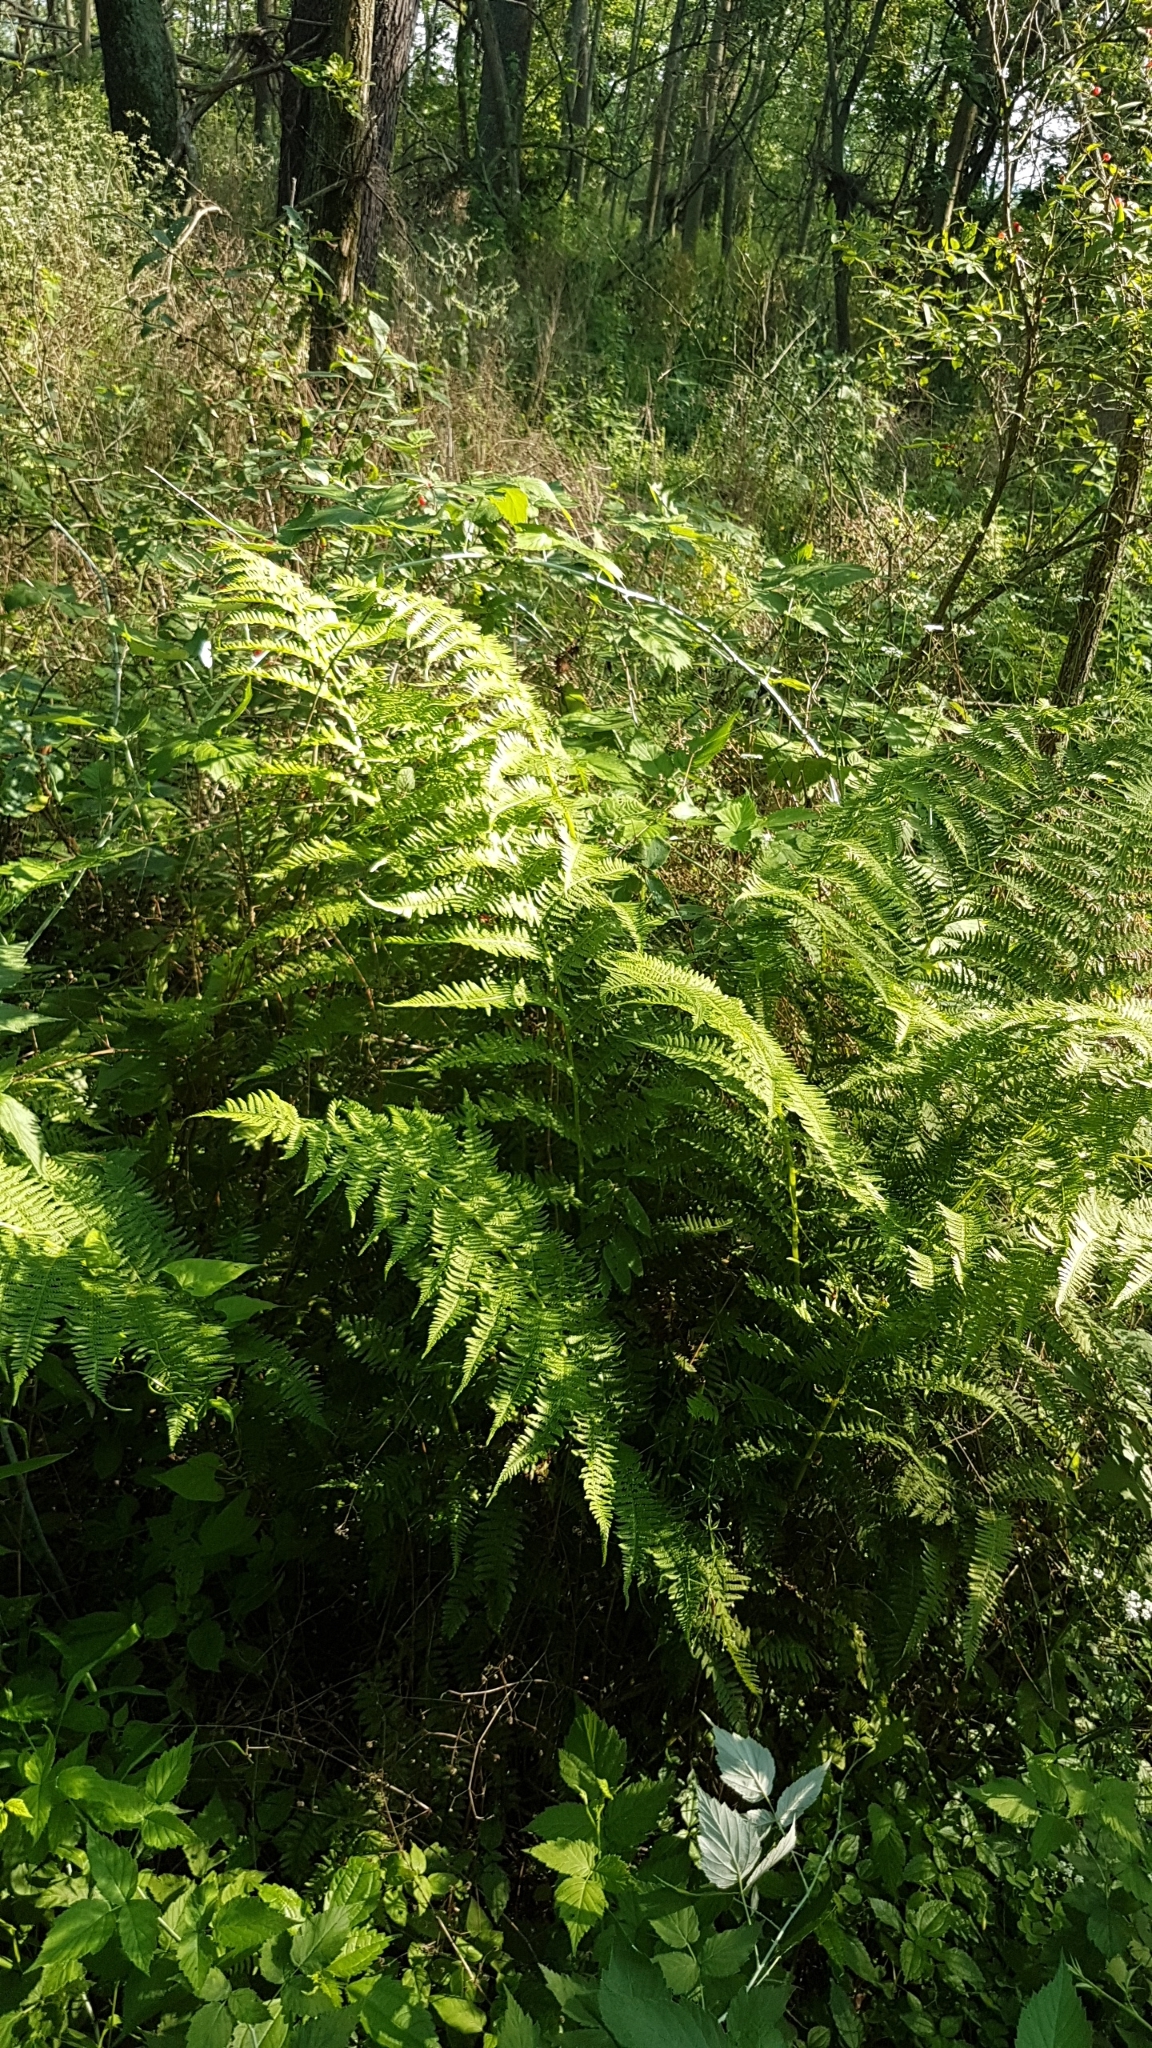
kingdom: Plantae
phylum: Tracheophyta
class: Polypodiopsida
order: Polypodiales
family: Athyriaceae
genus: Athyrium
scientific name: Athyrium angustum
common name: Northern lady fern
